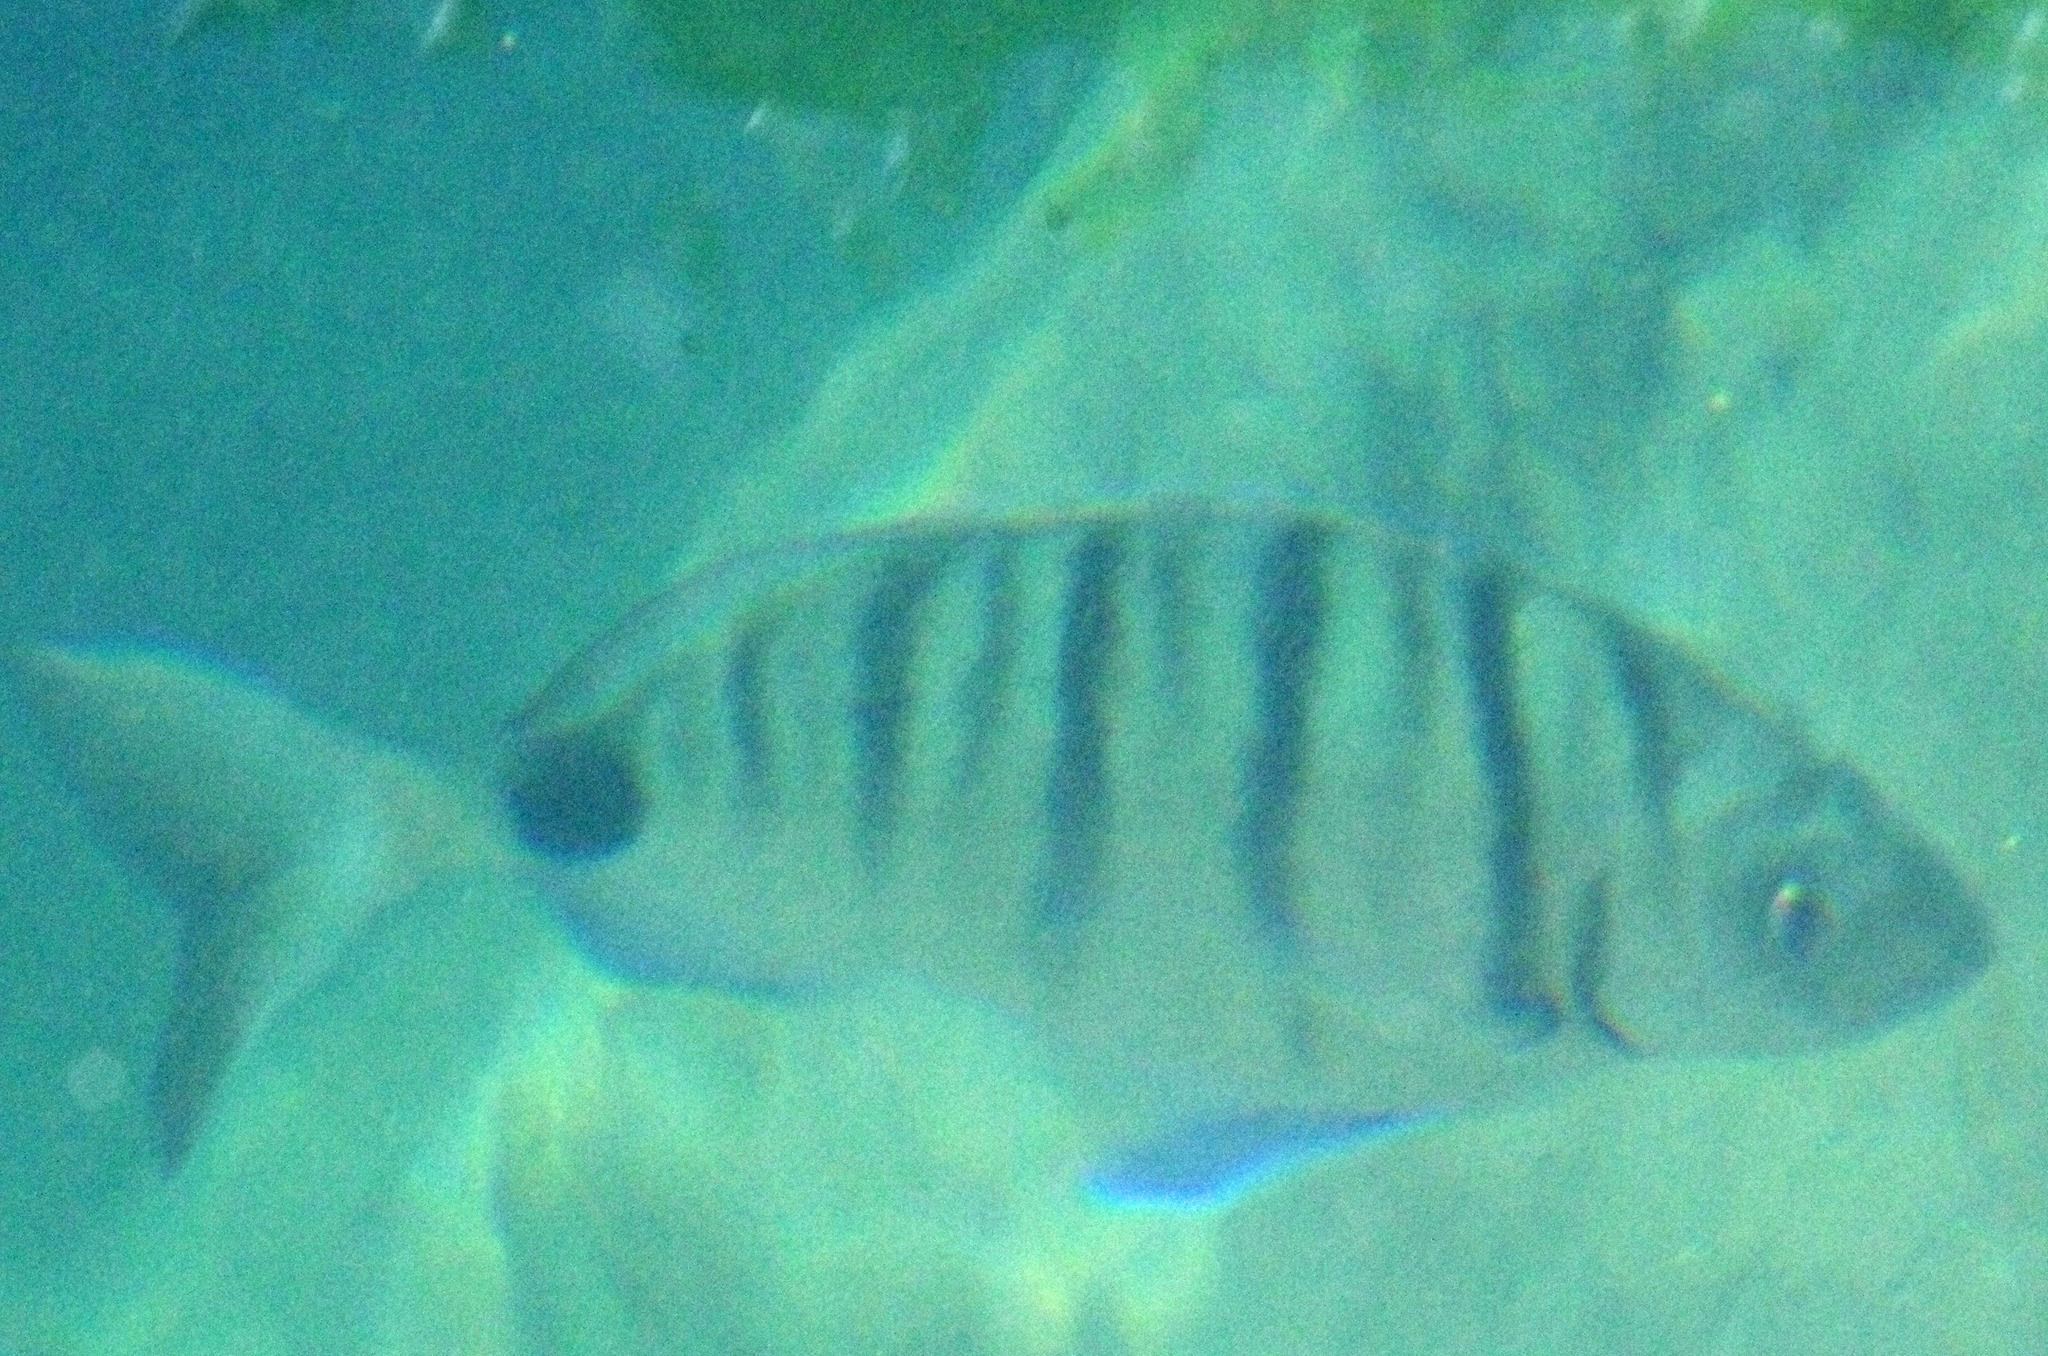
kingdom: Animalia
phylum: Chordata
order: Perciformes
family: Sparidae
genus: Diplodus
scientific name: Diplodus cadenati
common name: Moroccan white seabream
